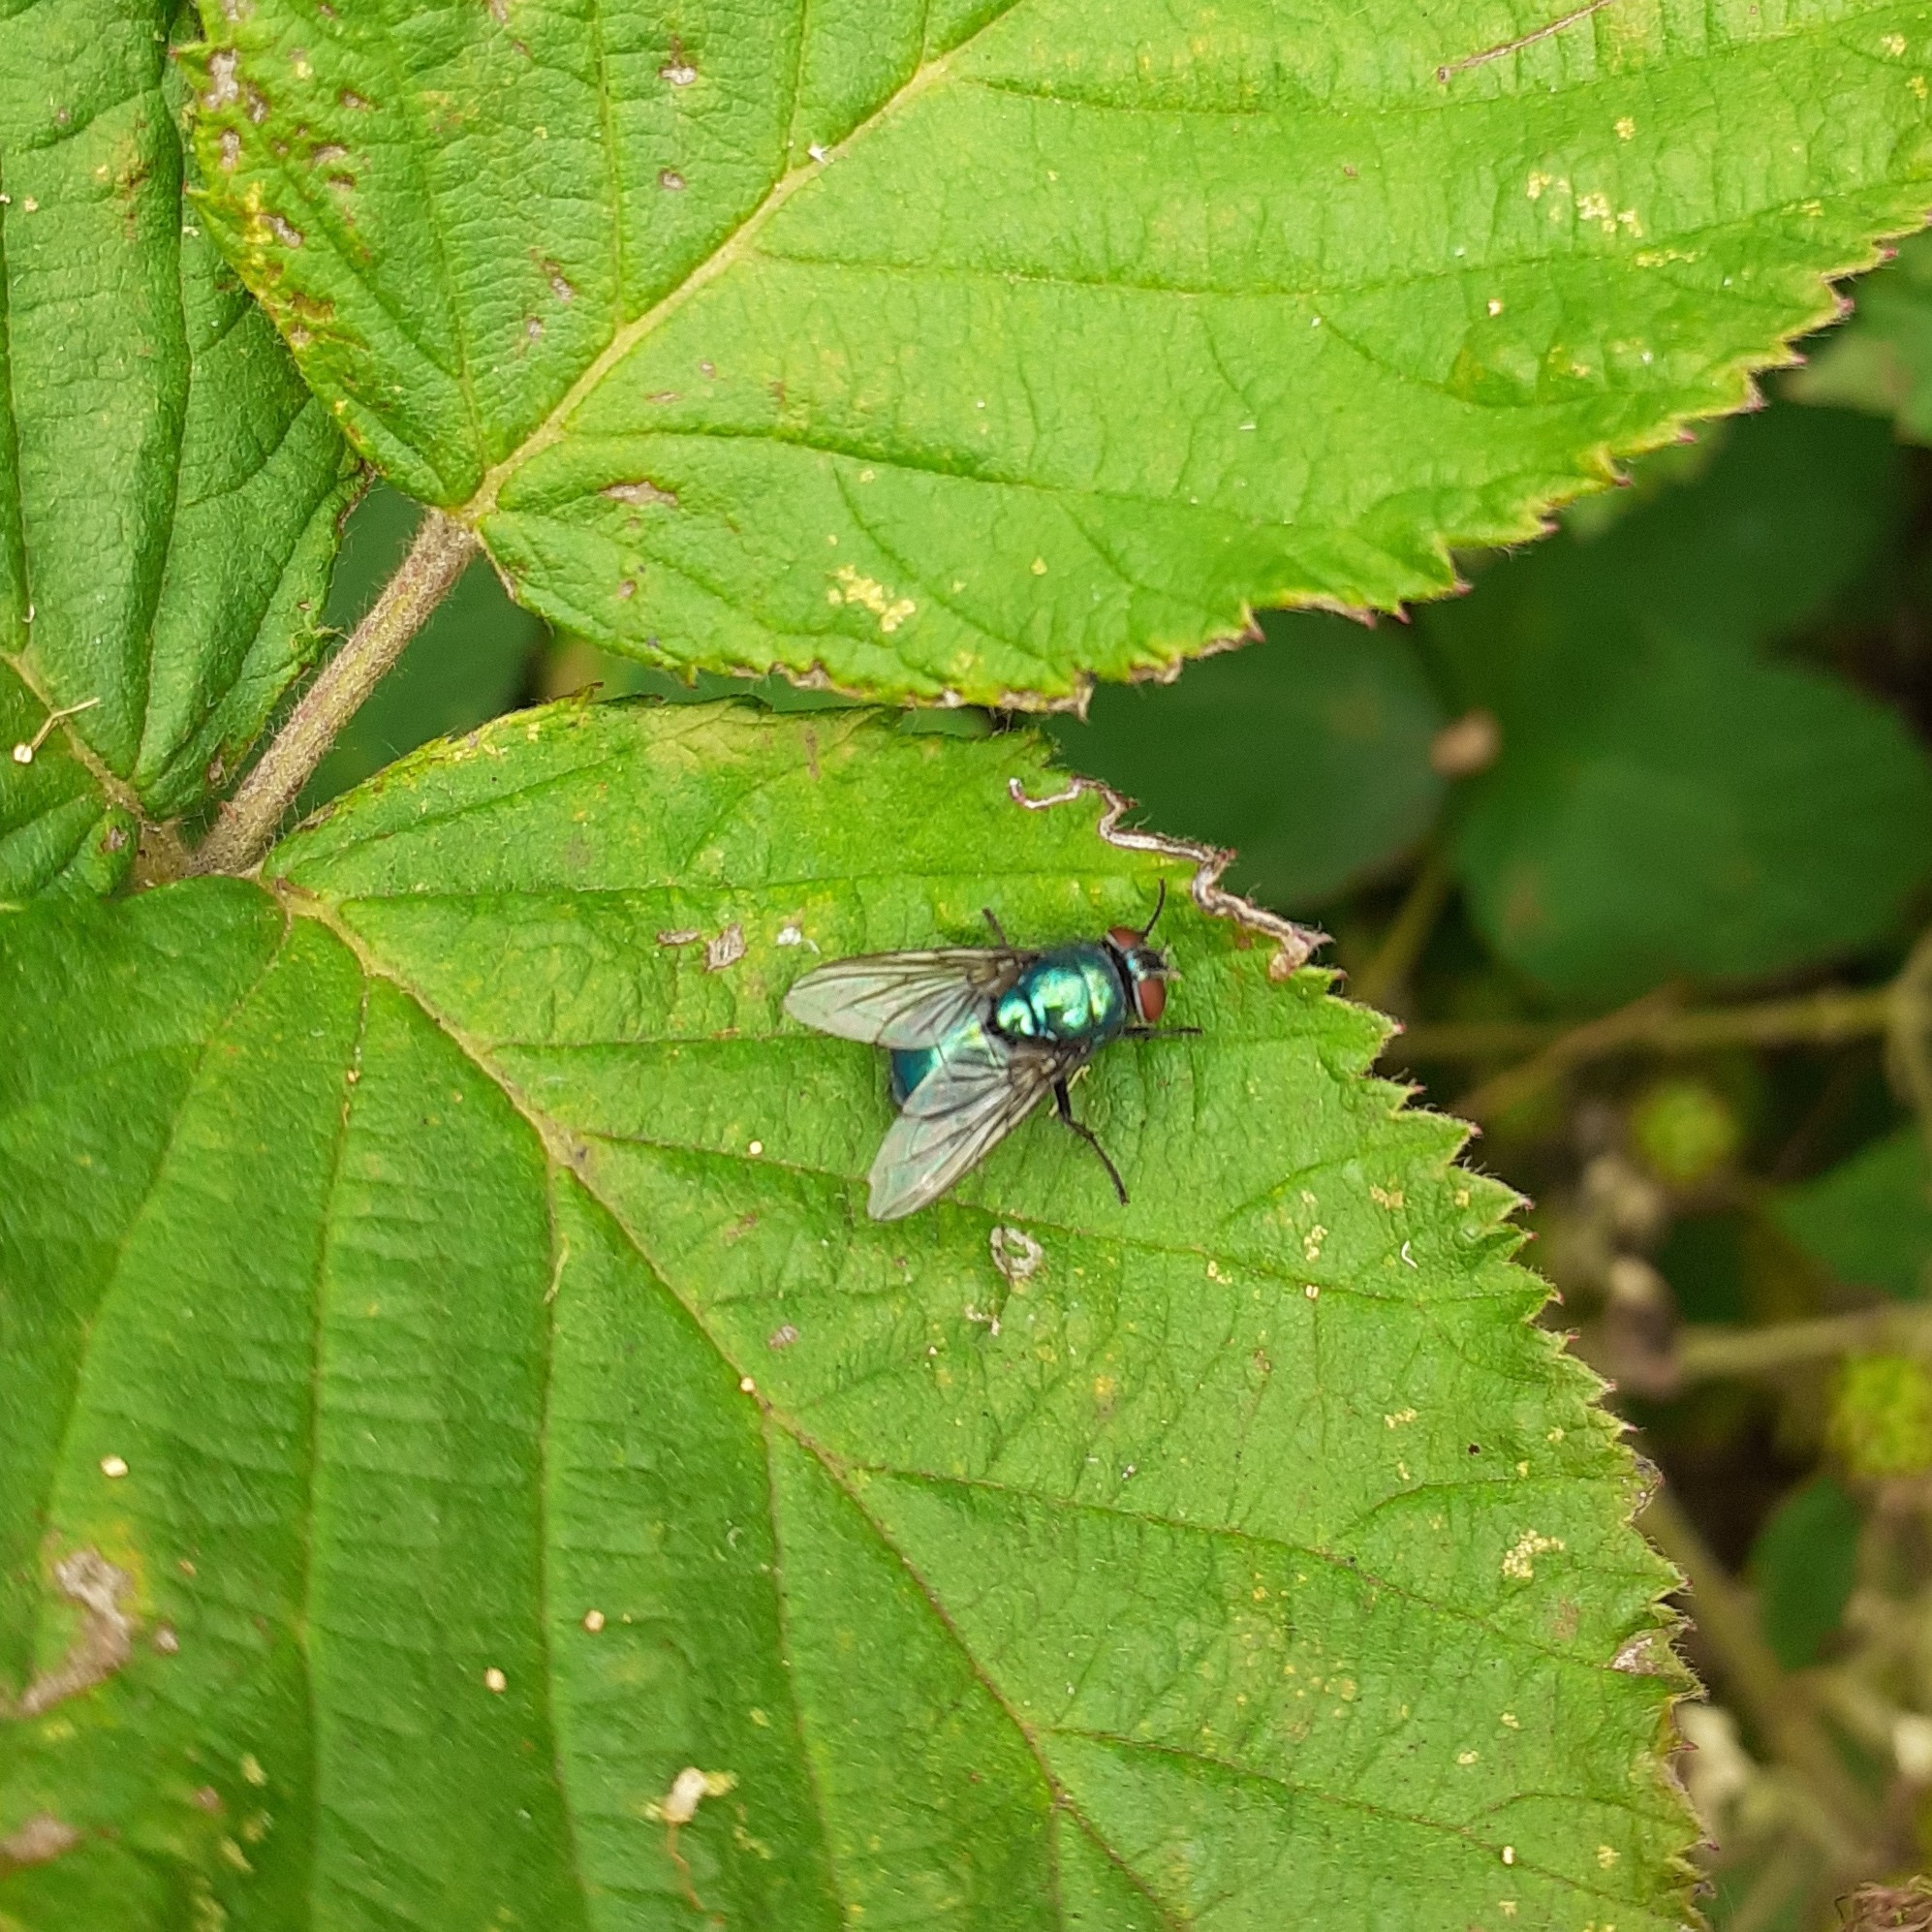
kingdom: Animalia
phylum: Arthropoda
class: Insecta
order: Diptera
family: Calliphoridae
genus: Lucilia
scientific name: Lucilia
